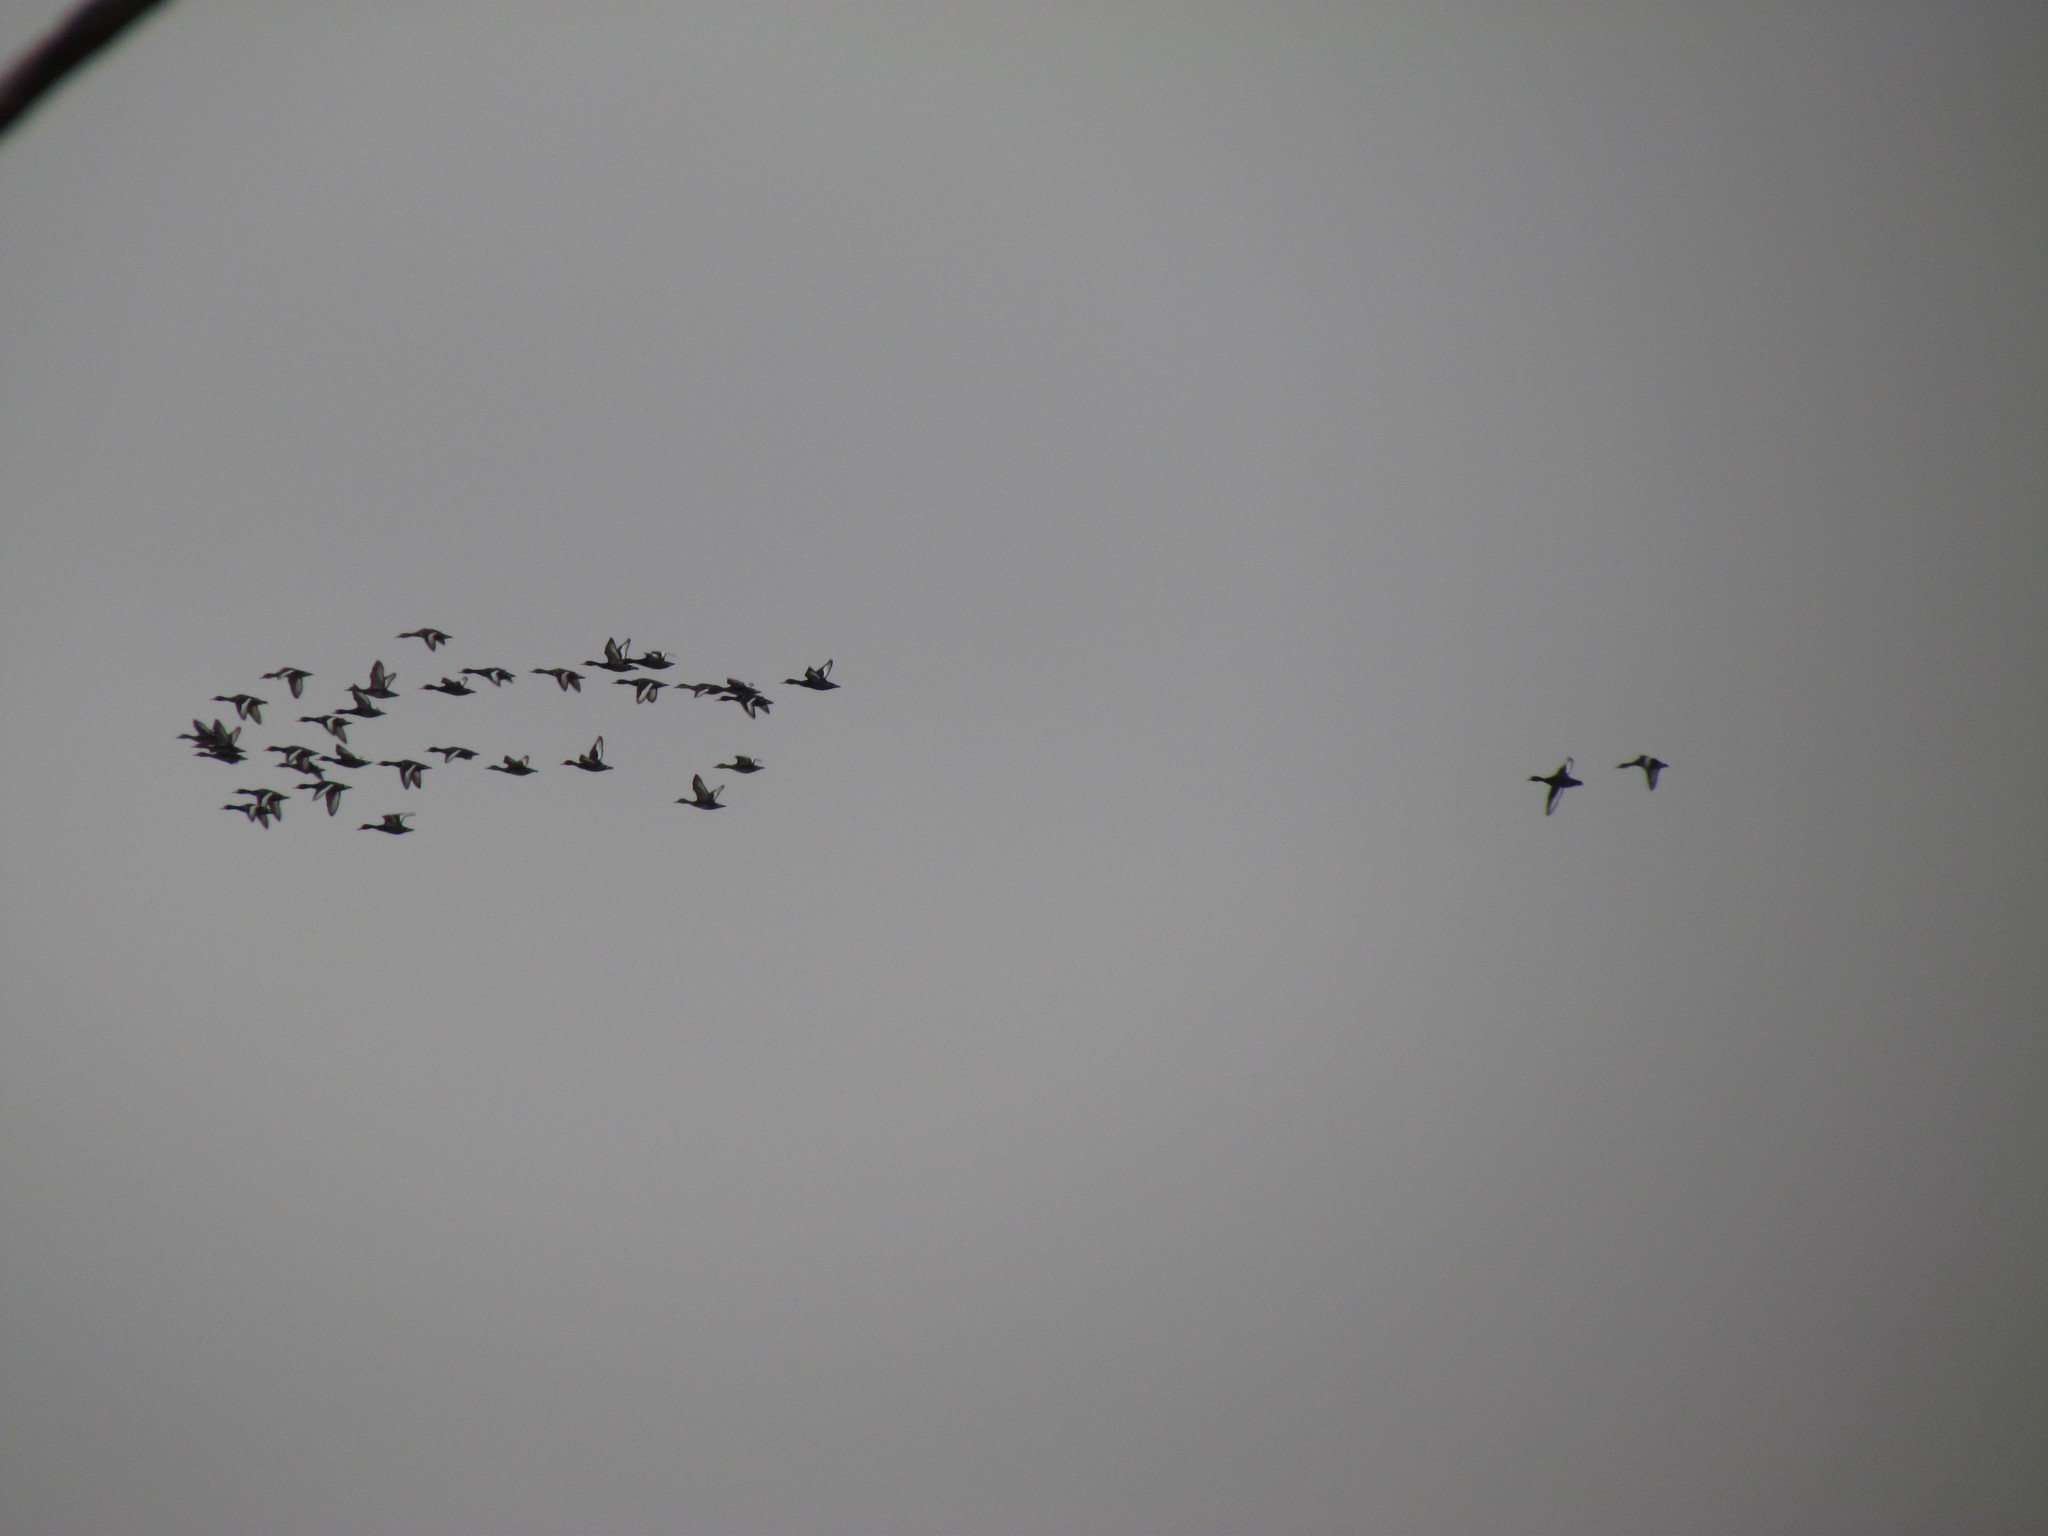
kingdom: Animalia
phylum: Chordata
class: Aves
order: Anseriformes
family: Anatidae
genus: Netta
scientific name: Netta peposaca
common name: Rosy-billed pochard
